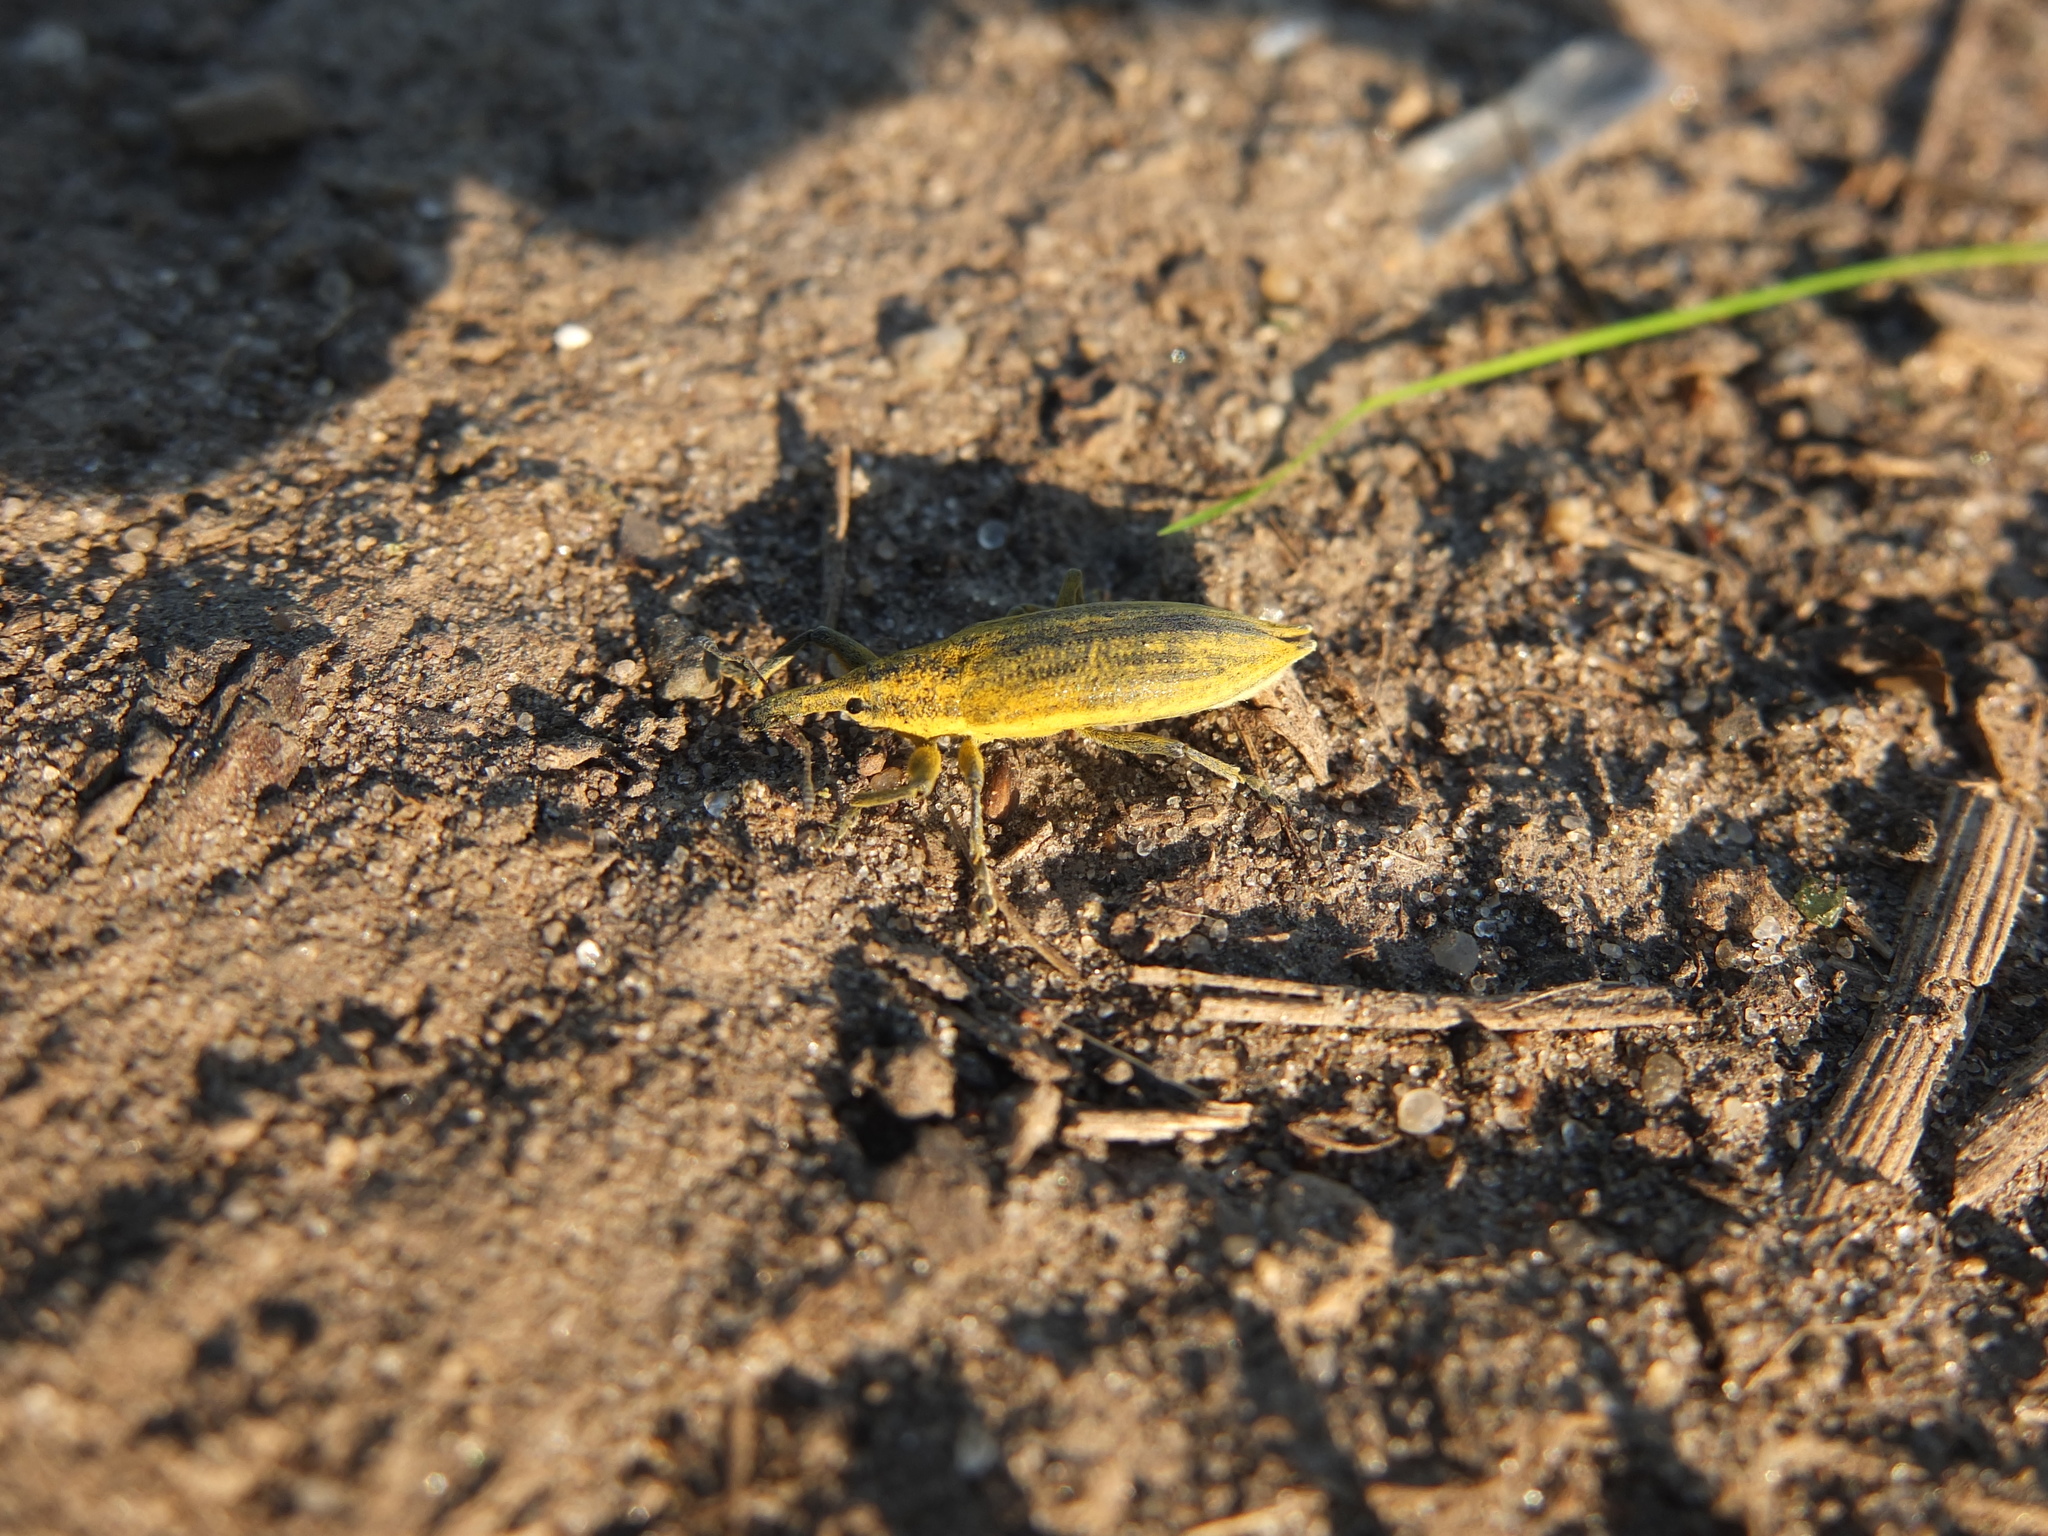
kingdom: Animalia
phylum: Arthropoda
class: Insecta
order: Coleoptera
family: Curculionidae
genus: Lixus
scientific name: Lixus iridis
